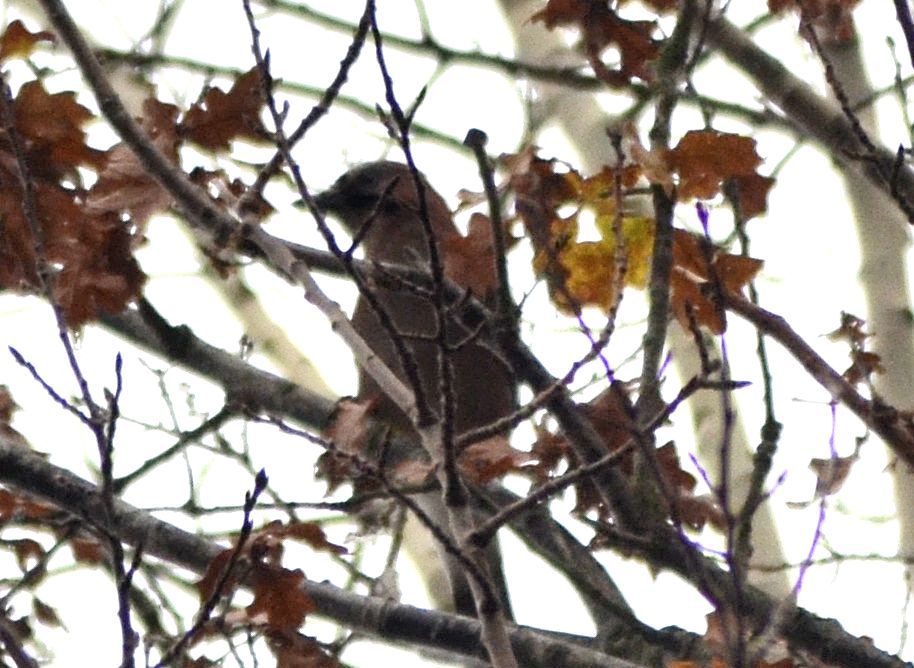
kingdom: Animalia
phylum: Chordata
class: Aves
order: Passeriformes
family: Corvidae
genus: Garrulus
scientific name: Garrulus glandarius
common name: Eurasian jay
